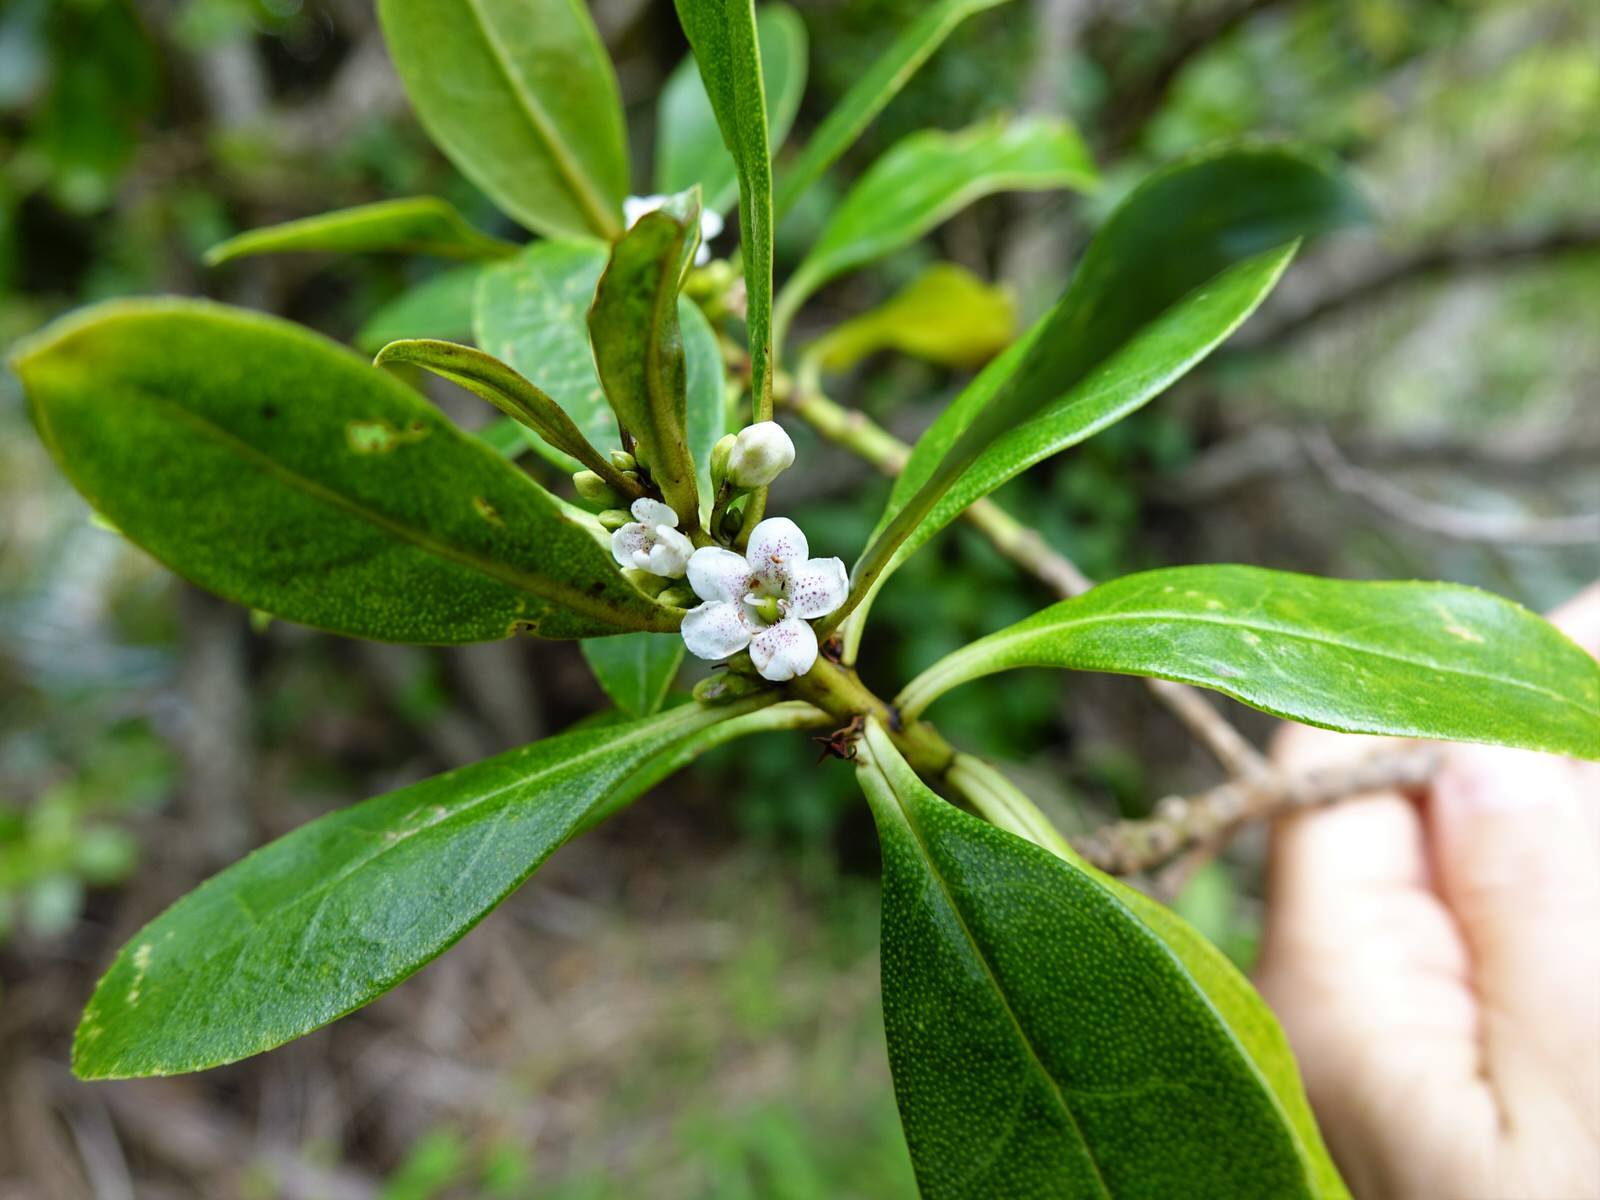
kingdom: Plantae
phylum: Tracheophyta
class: Magnoliopsida
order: Lamiales
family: Scrophulariaceae
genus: Myoporum
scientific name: Myoporum laetum
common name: Ngaio tree
